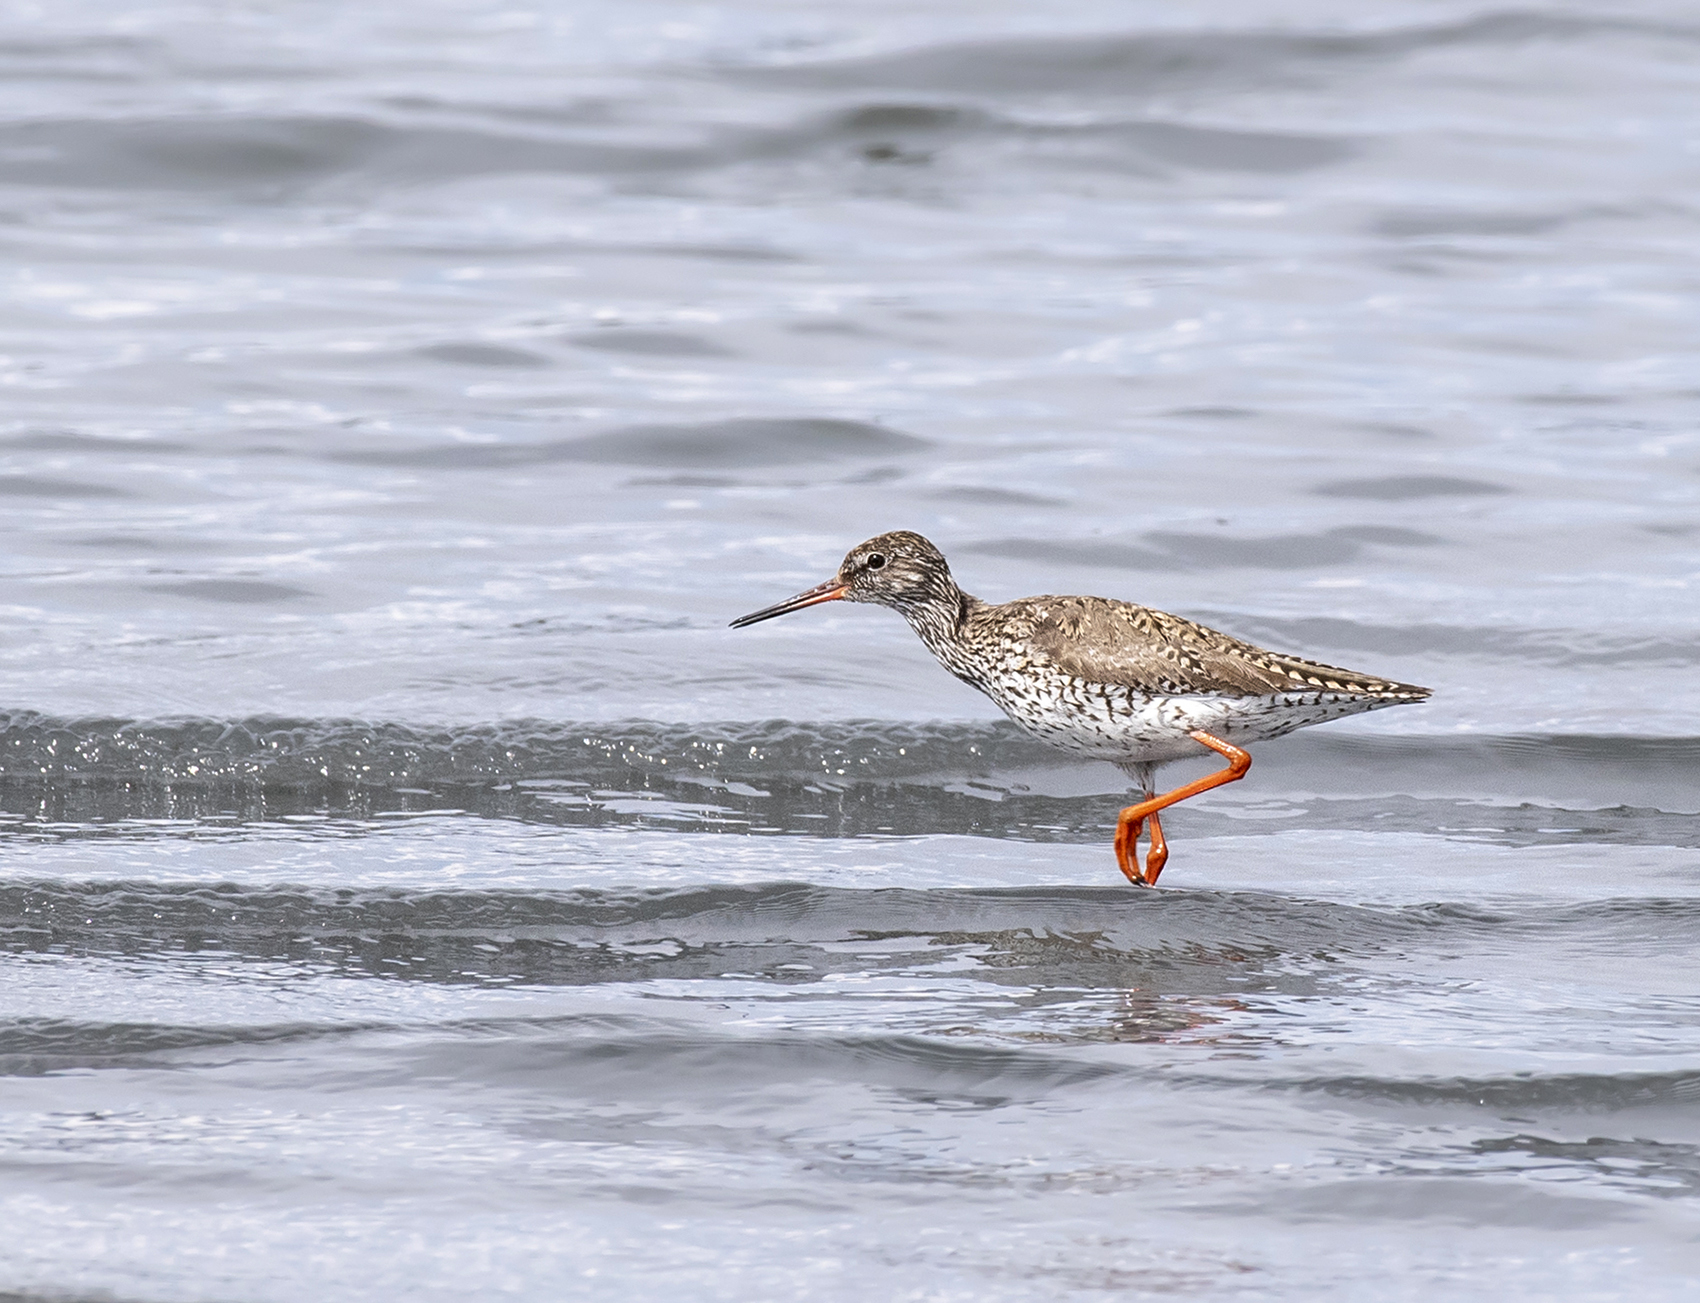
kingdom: Animalia
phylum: Chordata
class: Aves
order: Charadriiformes
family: Scolopacidae
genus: Tringa
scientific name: Tringa totanus
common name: Common redshank
